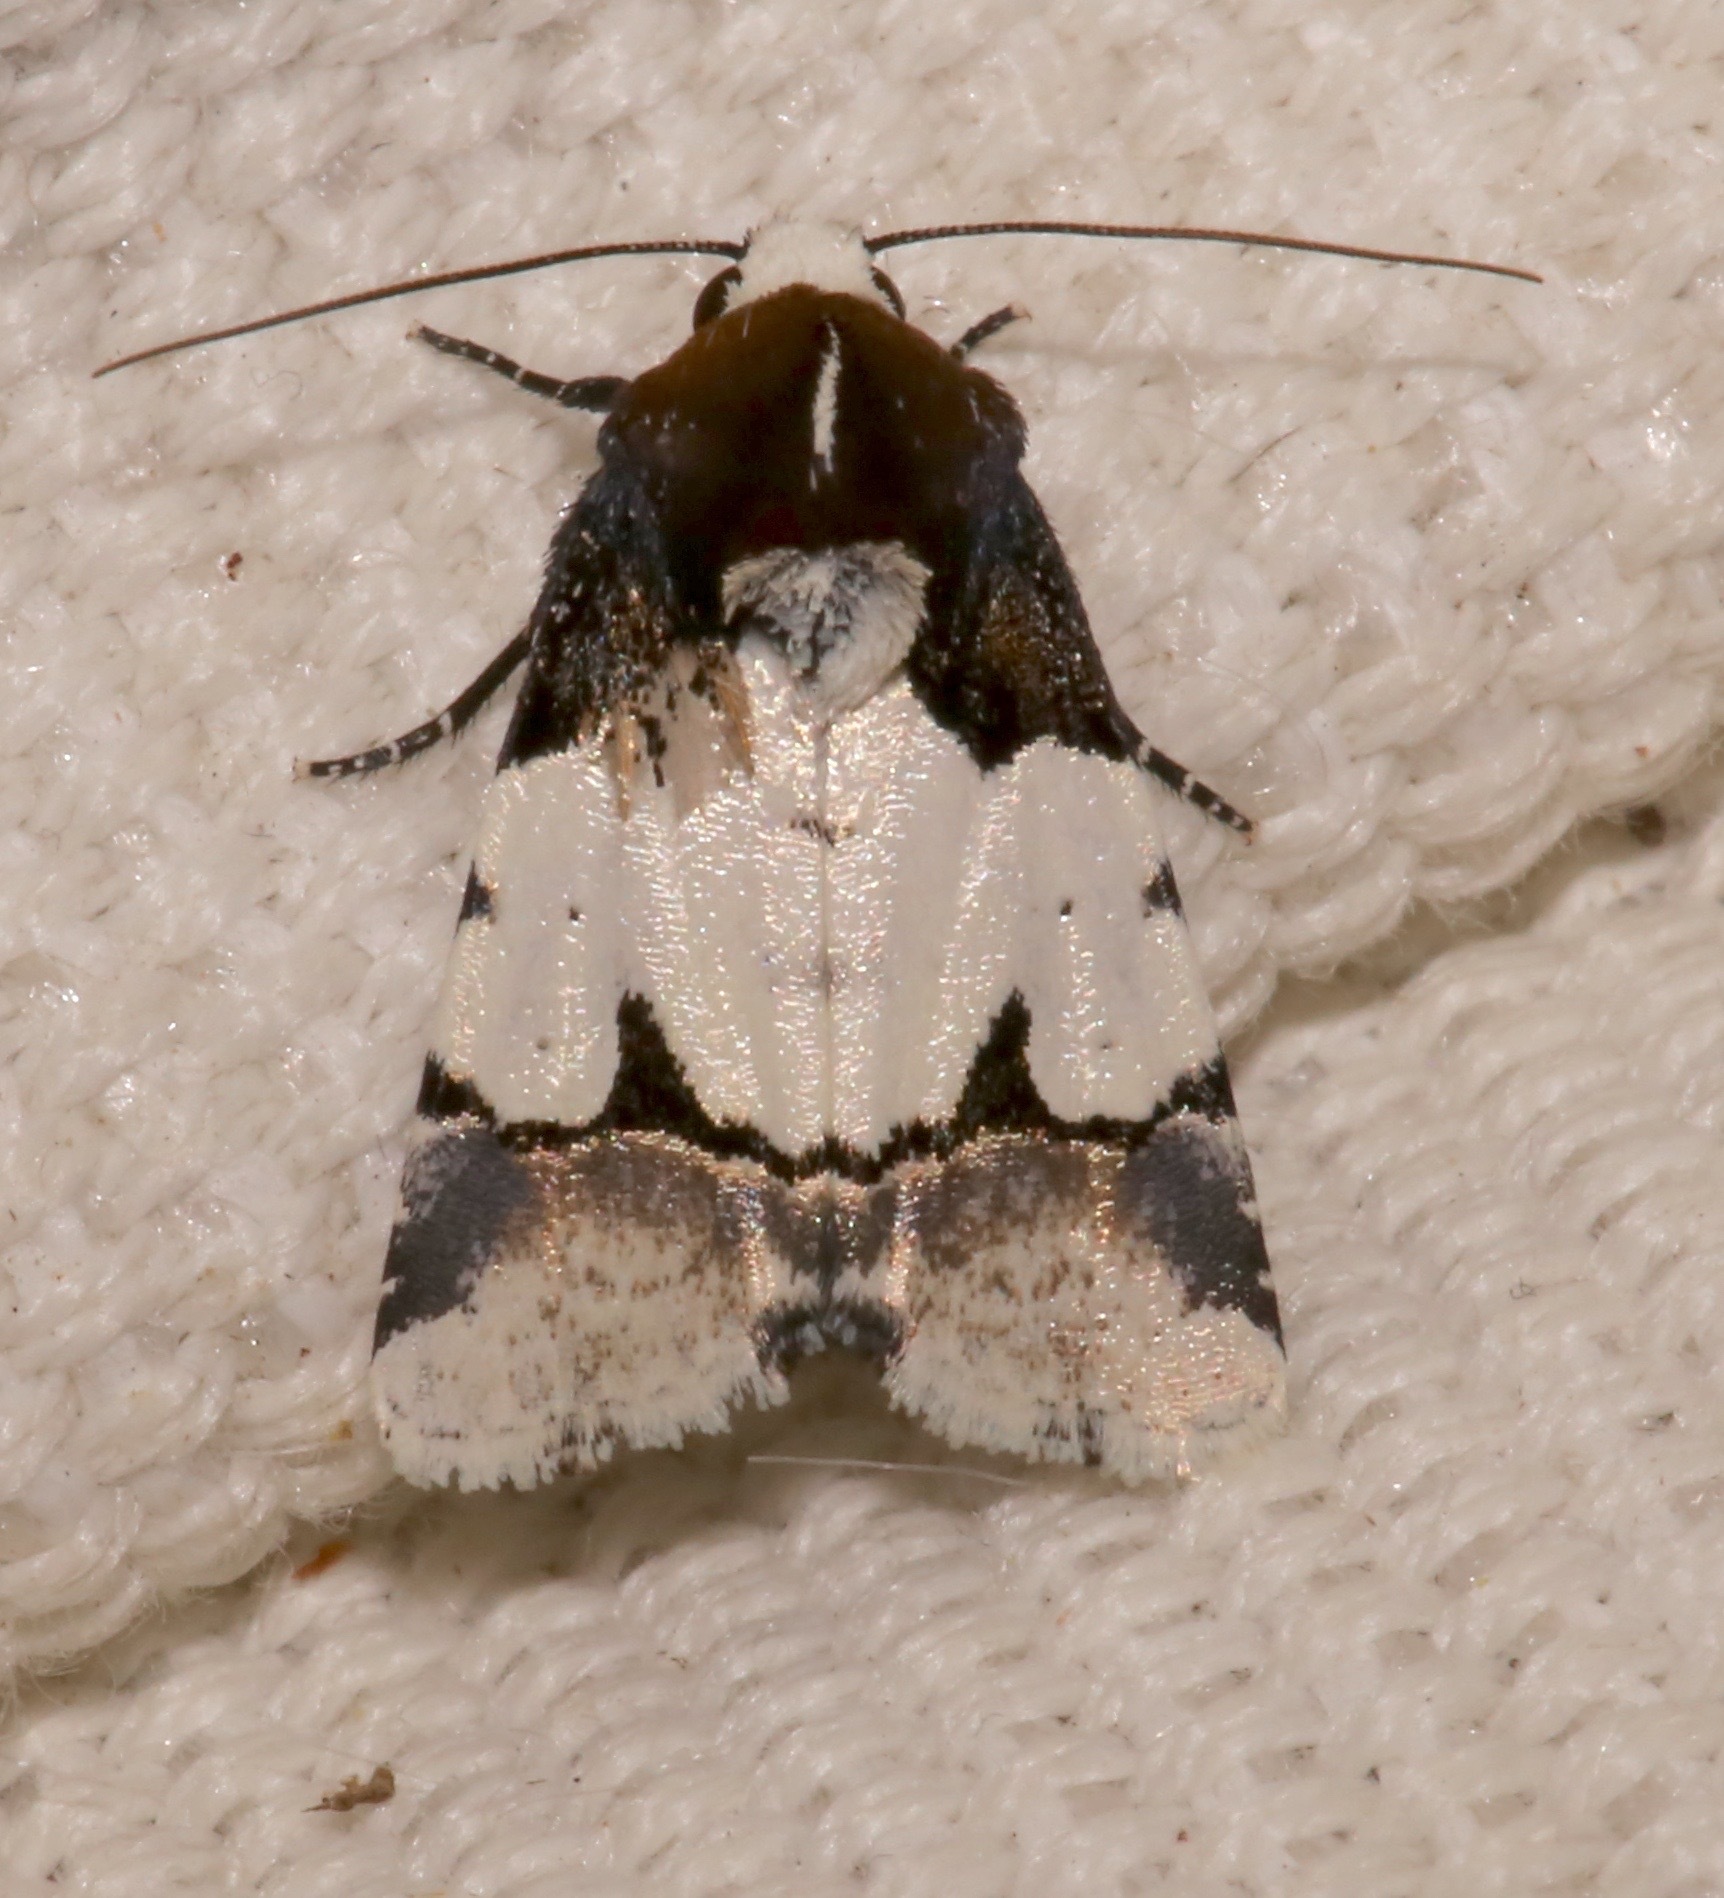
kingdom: Animalia
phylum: Arthropoda
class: Insecta
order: Lepidoptera
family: Noctuidae
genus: Bryolymnia
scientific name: Bryolymnia roma
